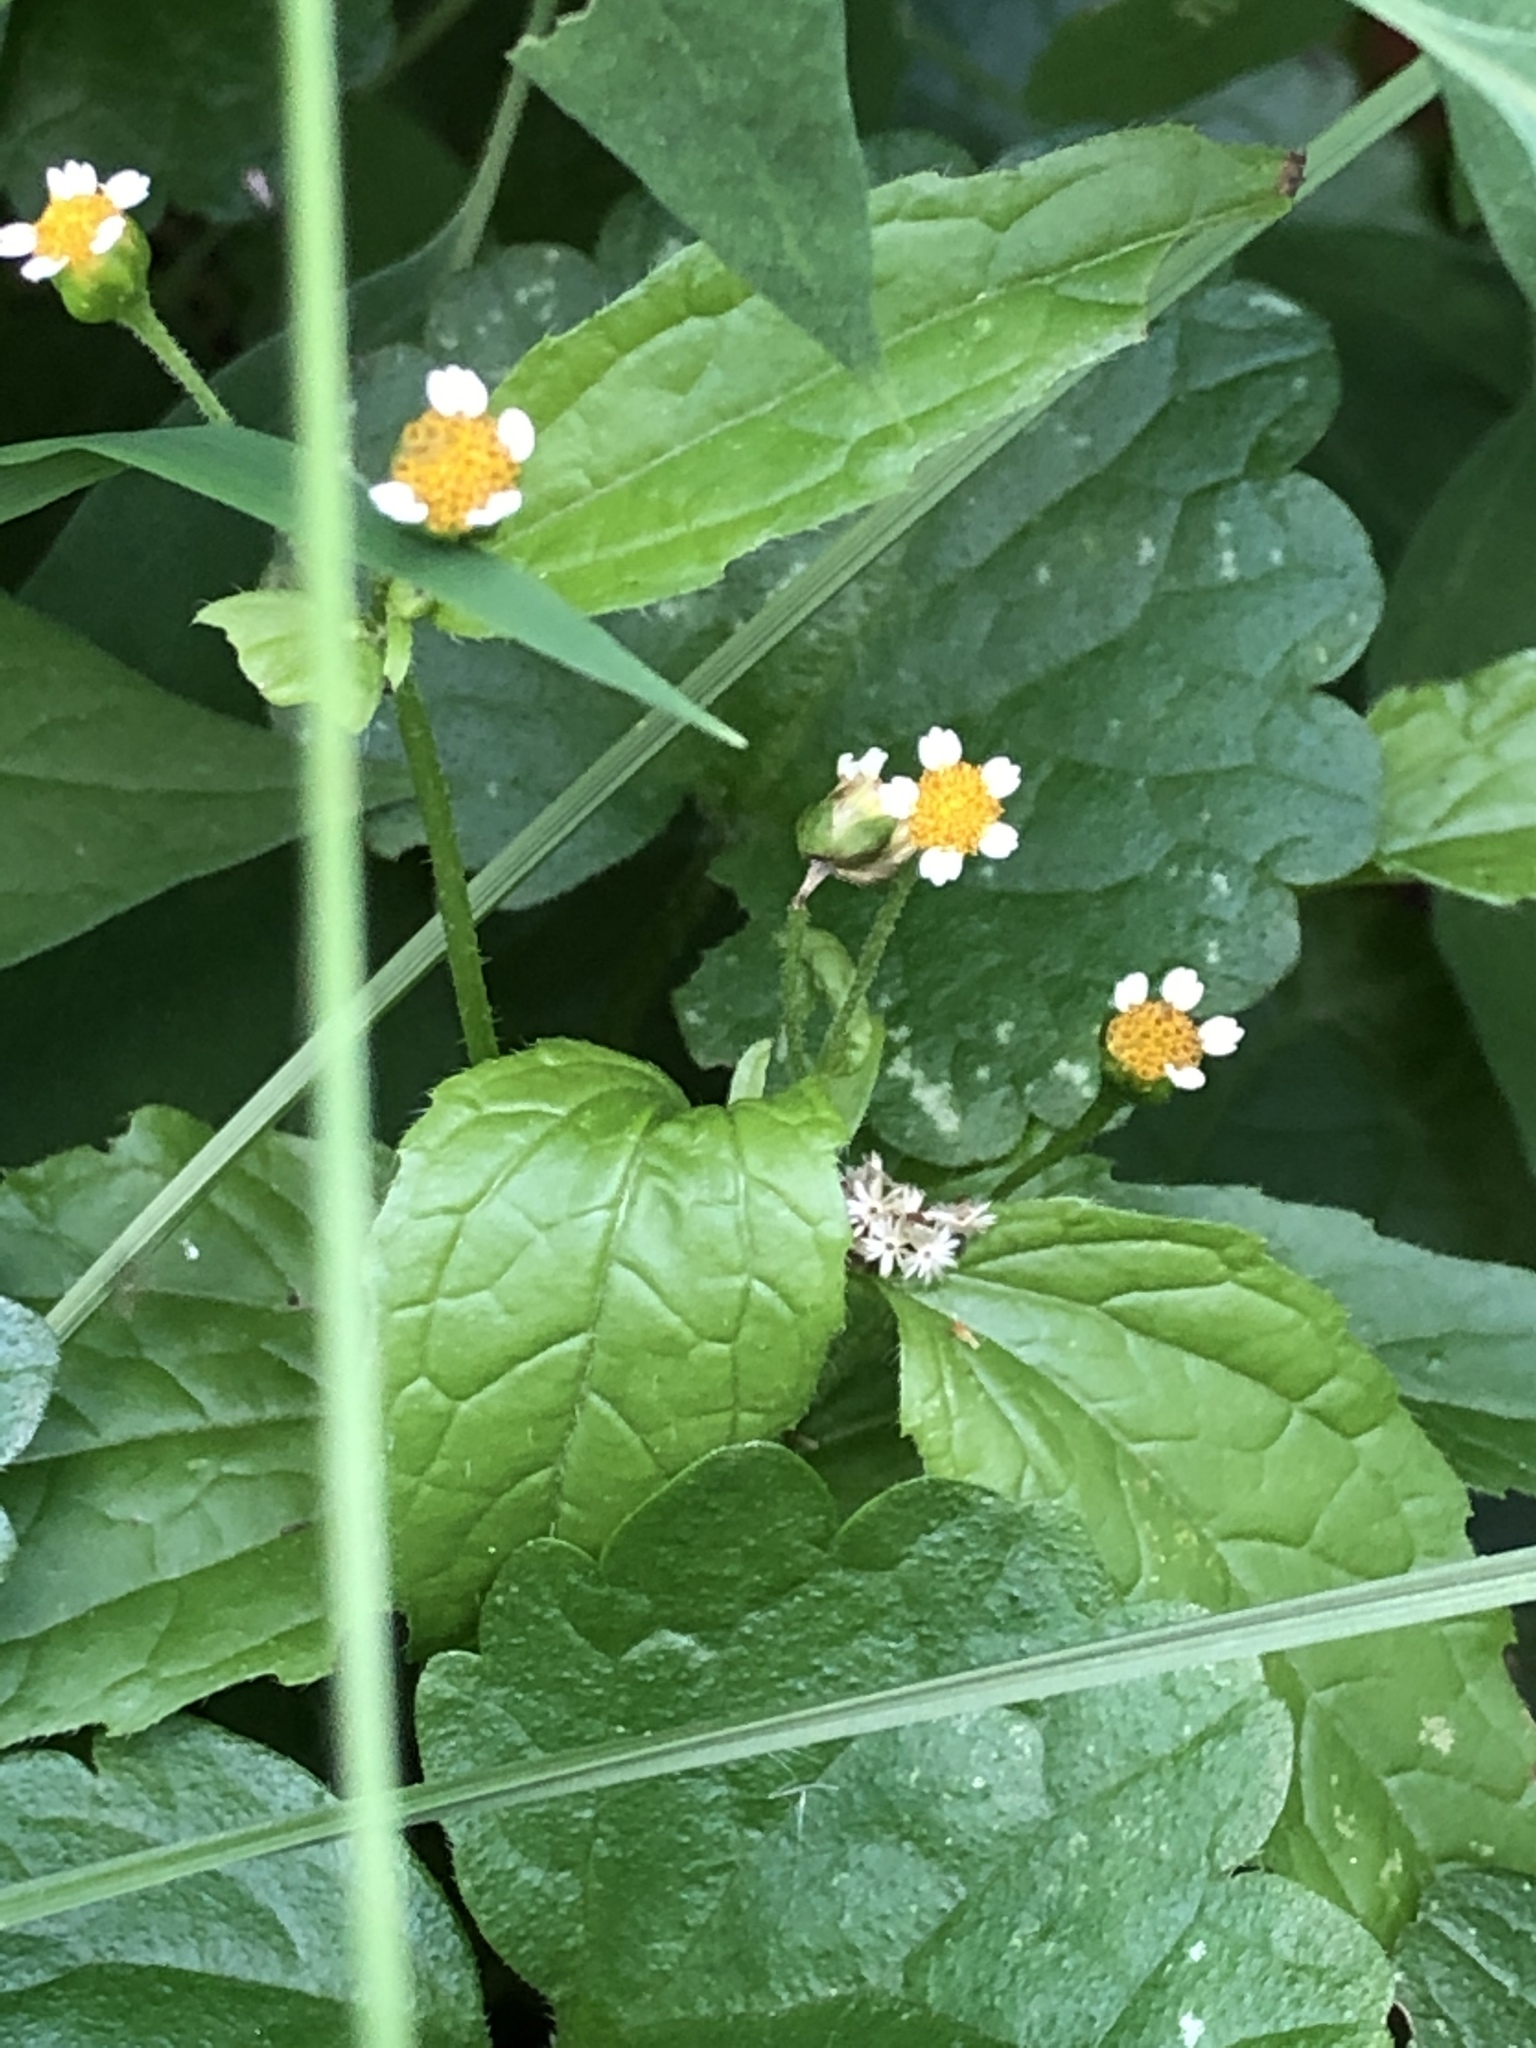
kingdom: Plantae
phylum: Tracheophyta
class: Magnoliopsida
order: Asterales
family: Asteraceae
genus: Galinsoga
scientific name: Galinsoga quadriradiata
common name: Shaggy soldier
